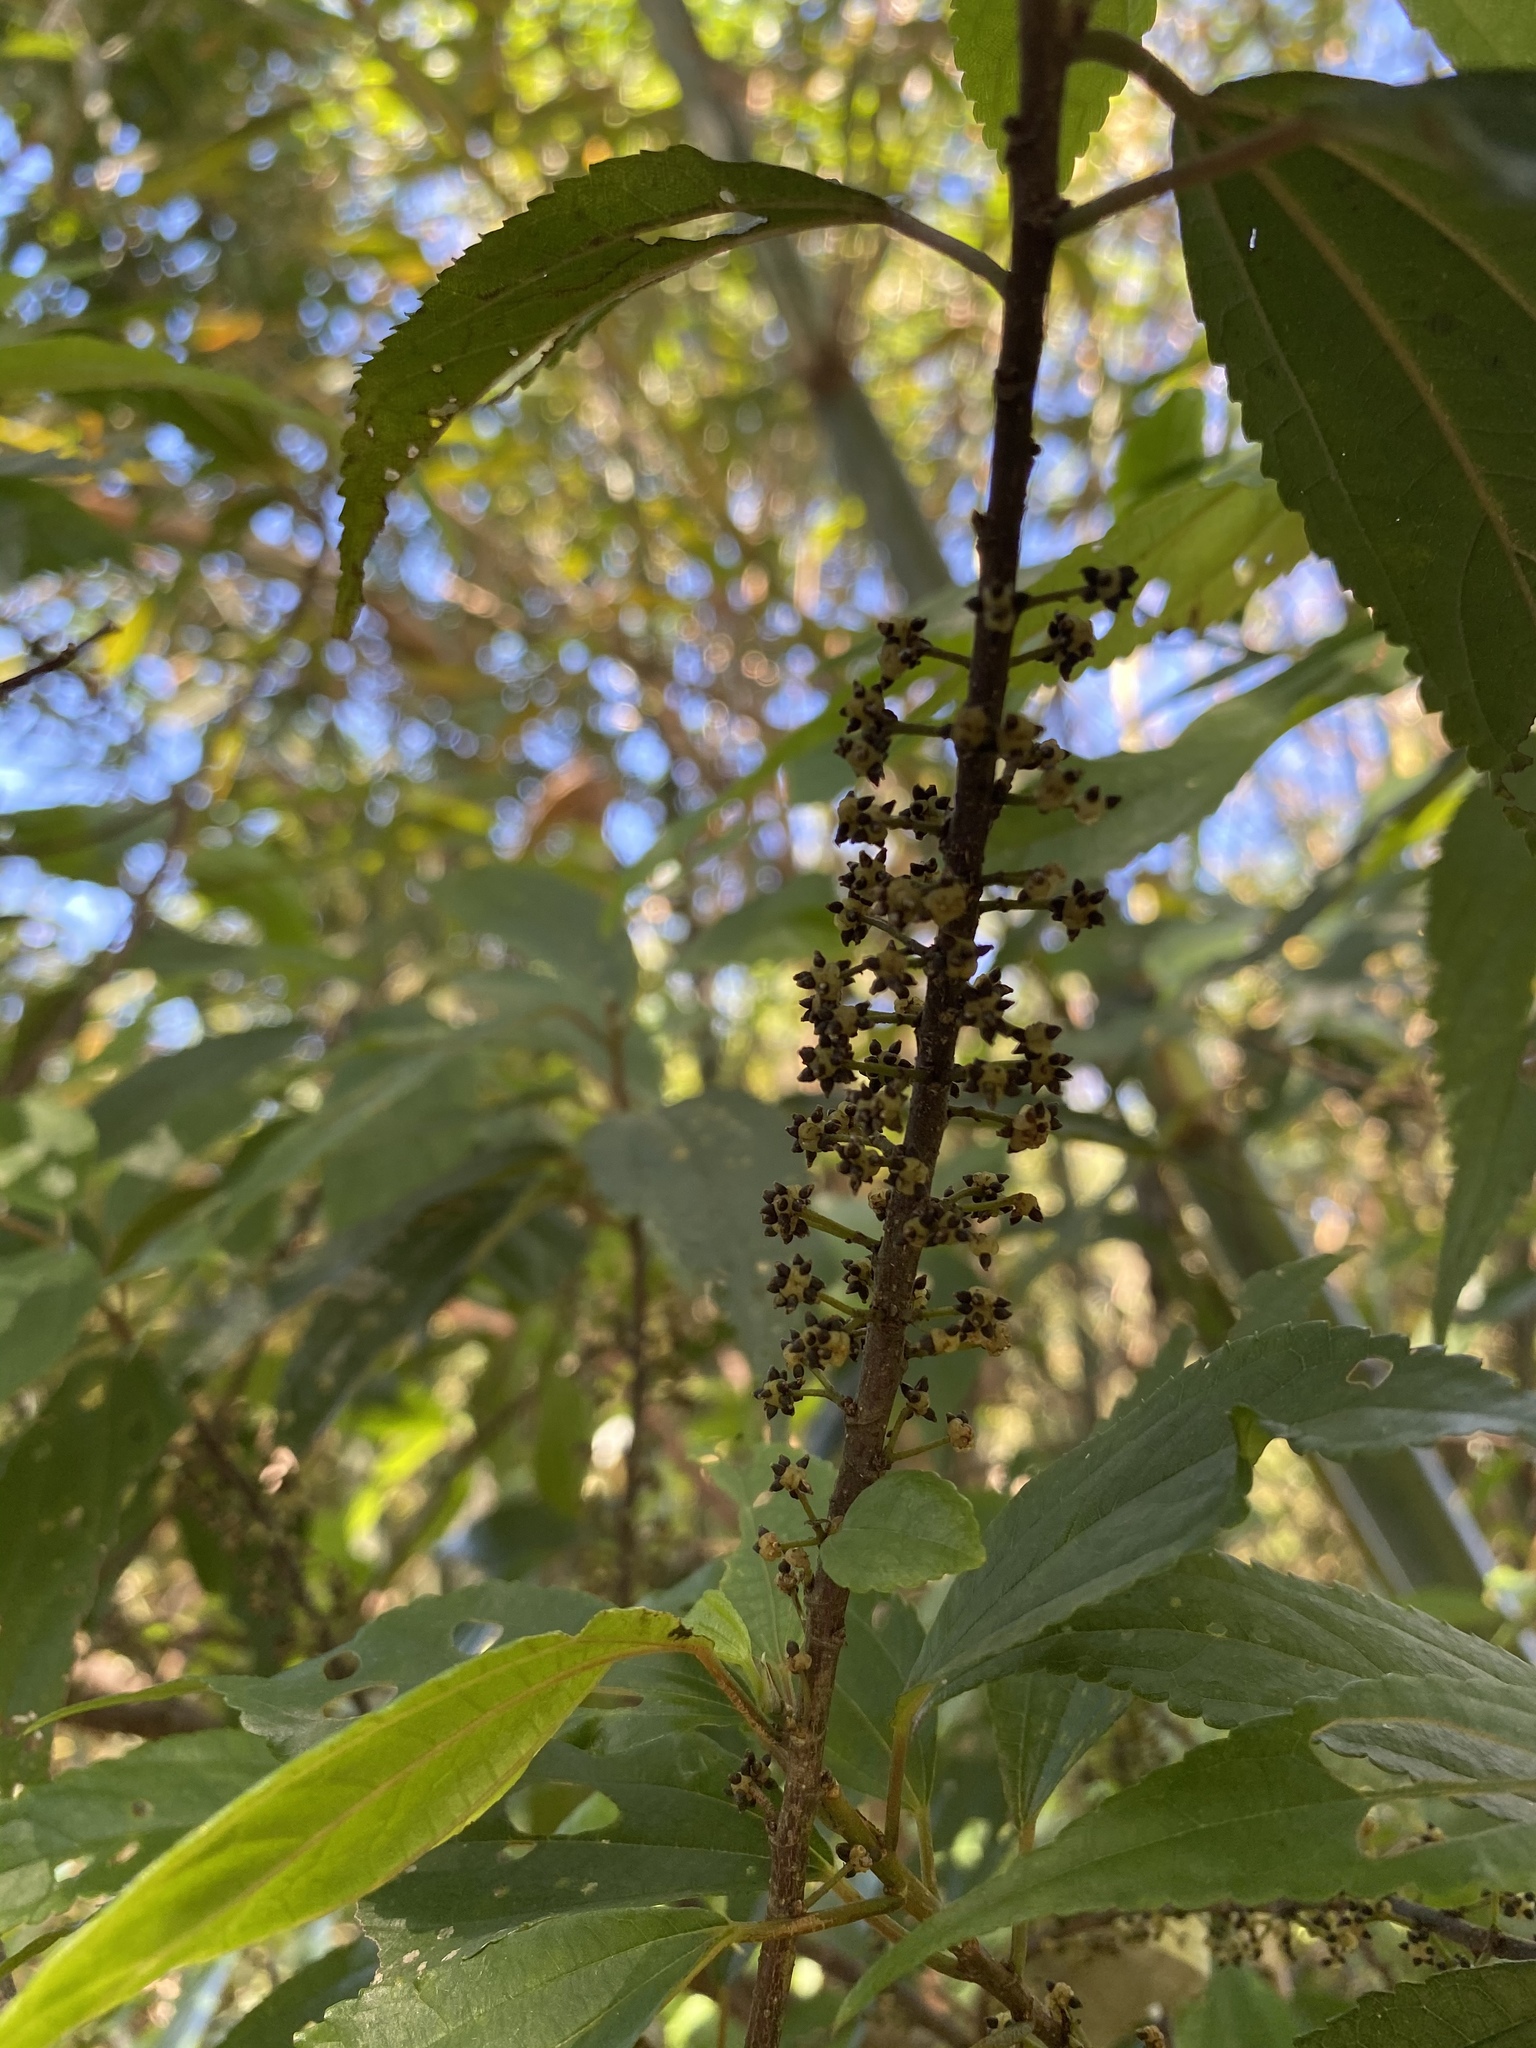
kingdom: Plantae
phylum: Tracheophyta
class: Magnoliopsida
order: Rosales
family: Urticaceae
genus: Oreocnide
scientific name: Oreocnide pedunculata
